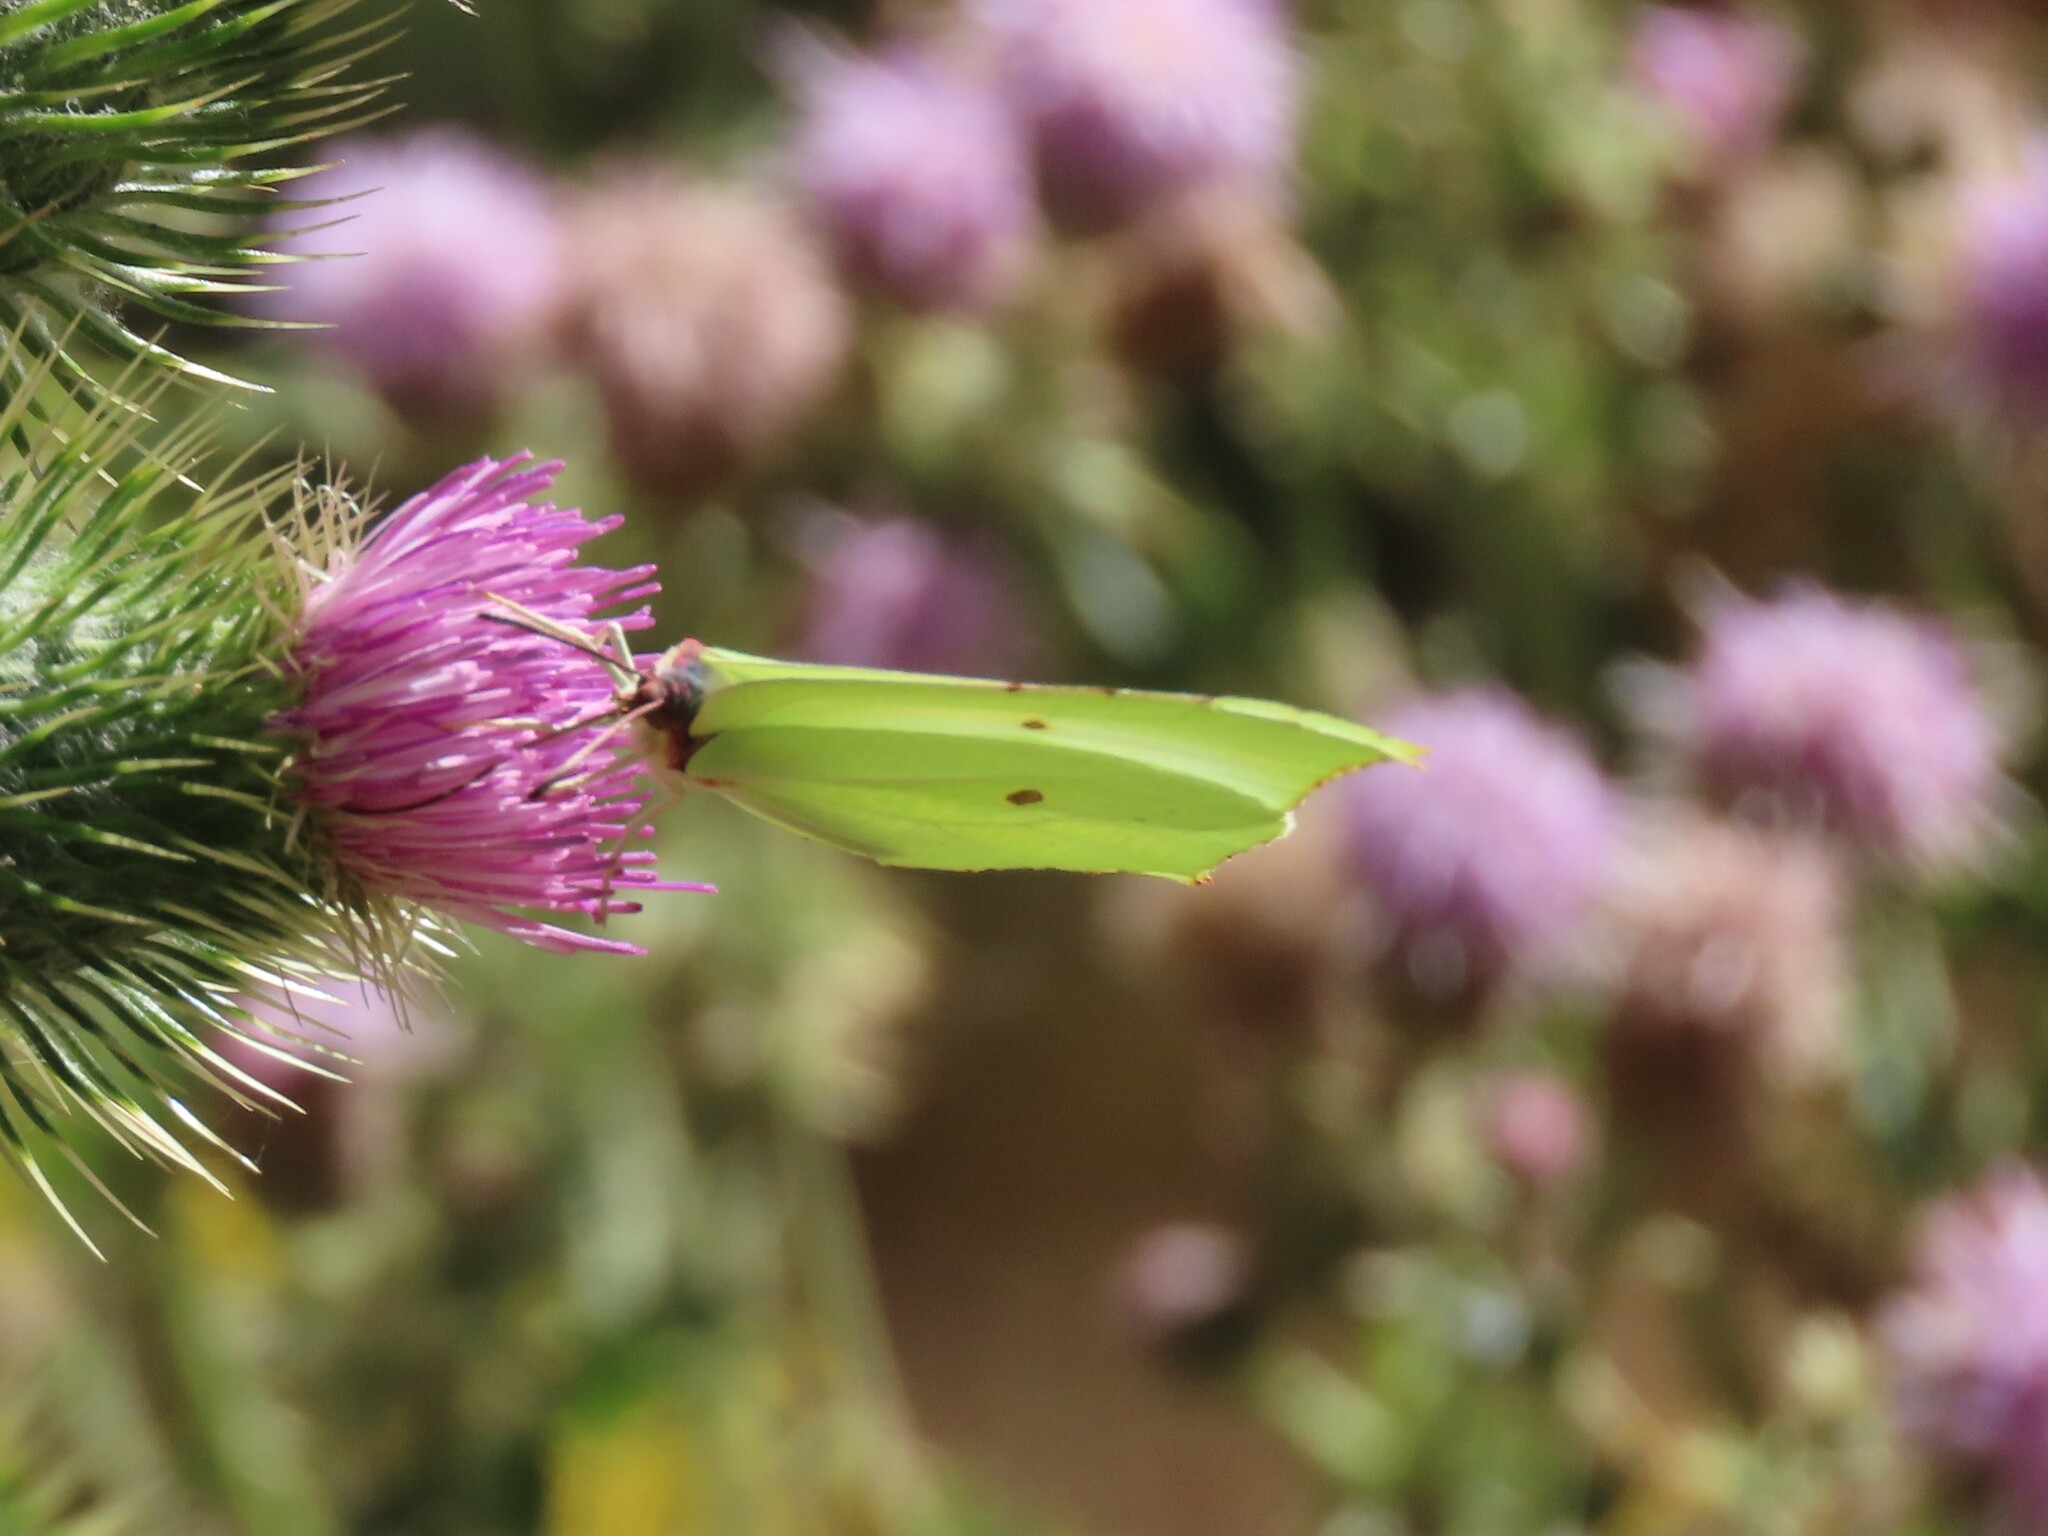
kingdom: Animalia
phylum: Arthropoda
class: Insecta
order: Lepidoptera
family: Pieridae
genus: Gonepteryx
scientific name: Gonepteryx rhamni
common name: Brimstone
